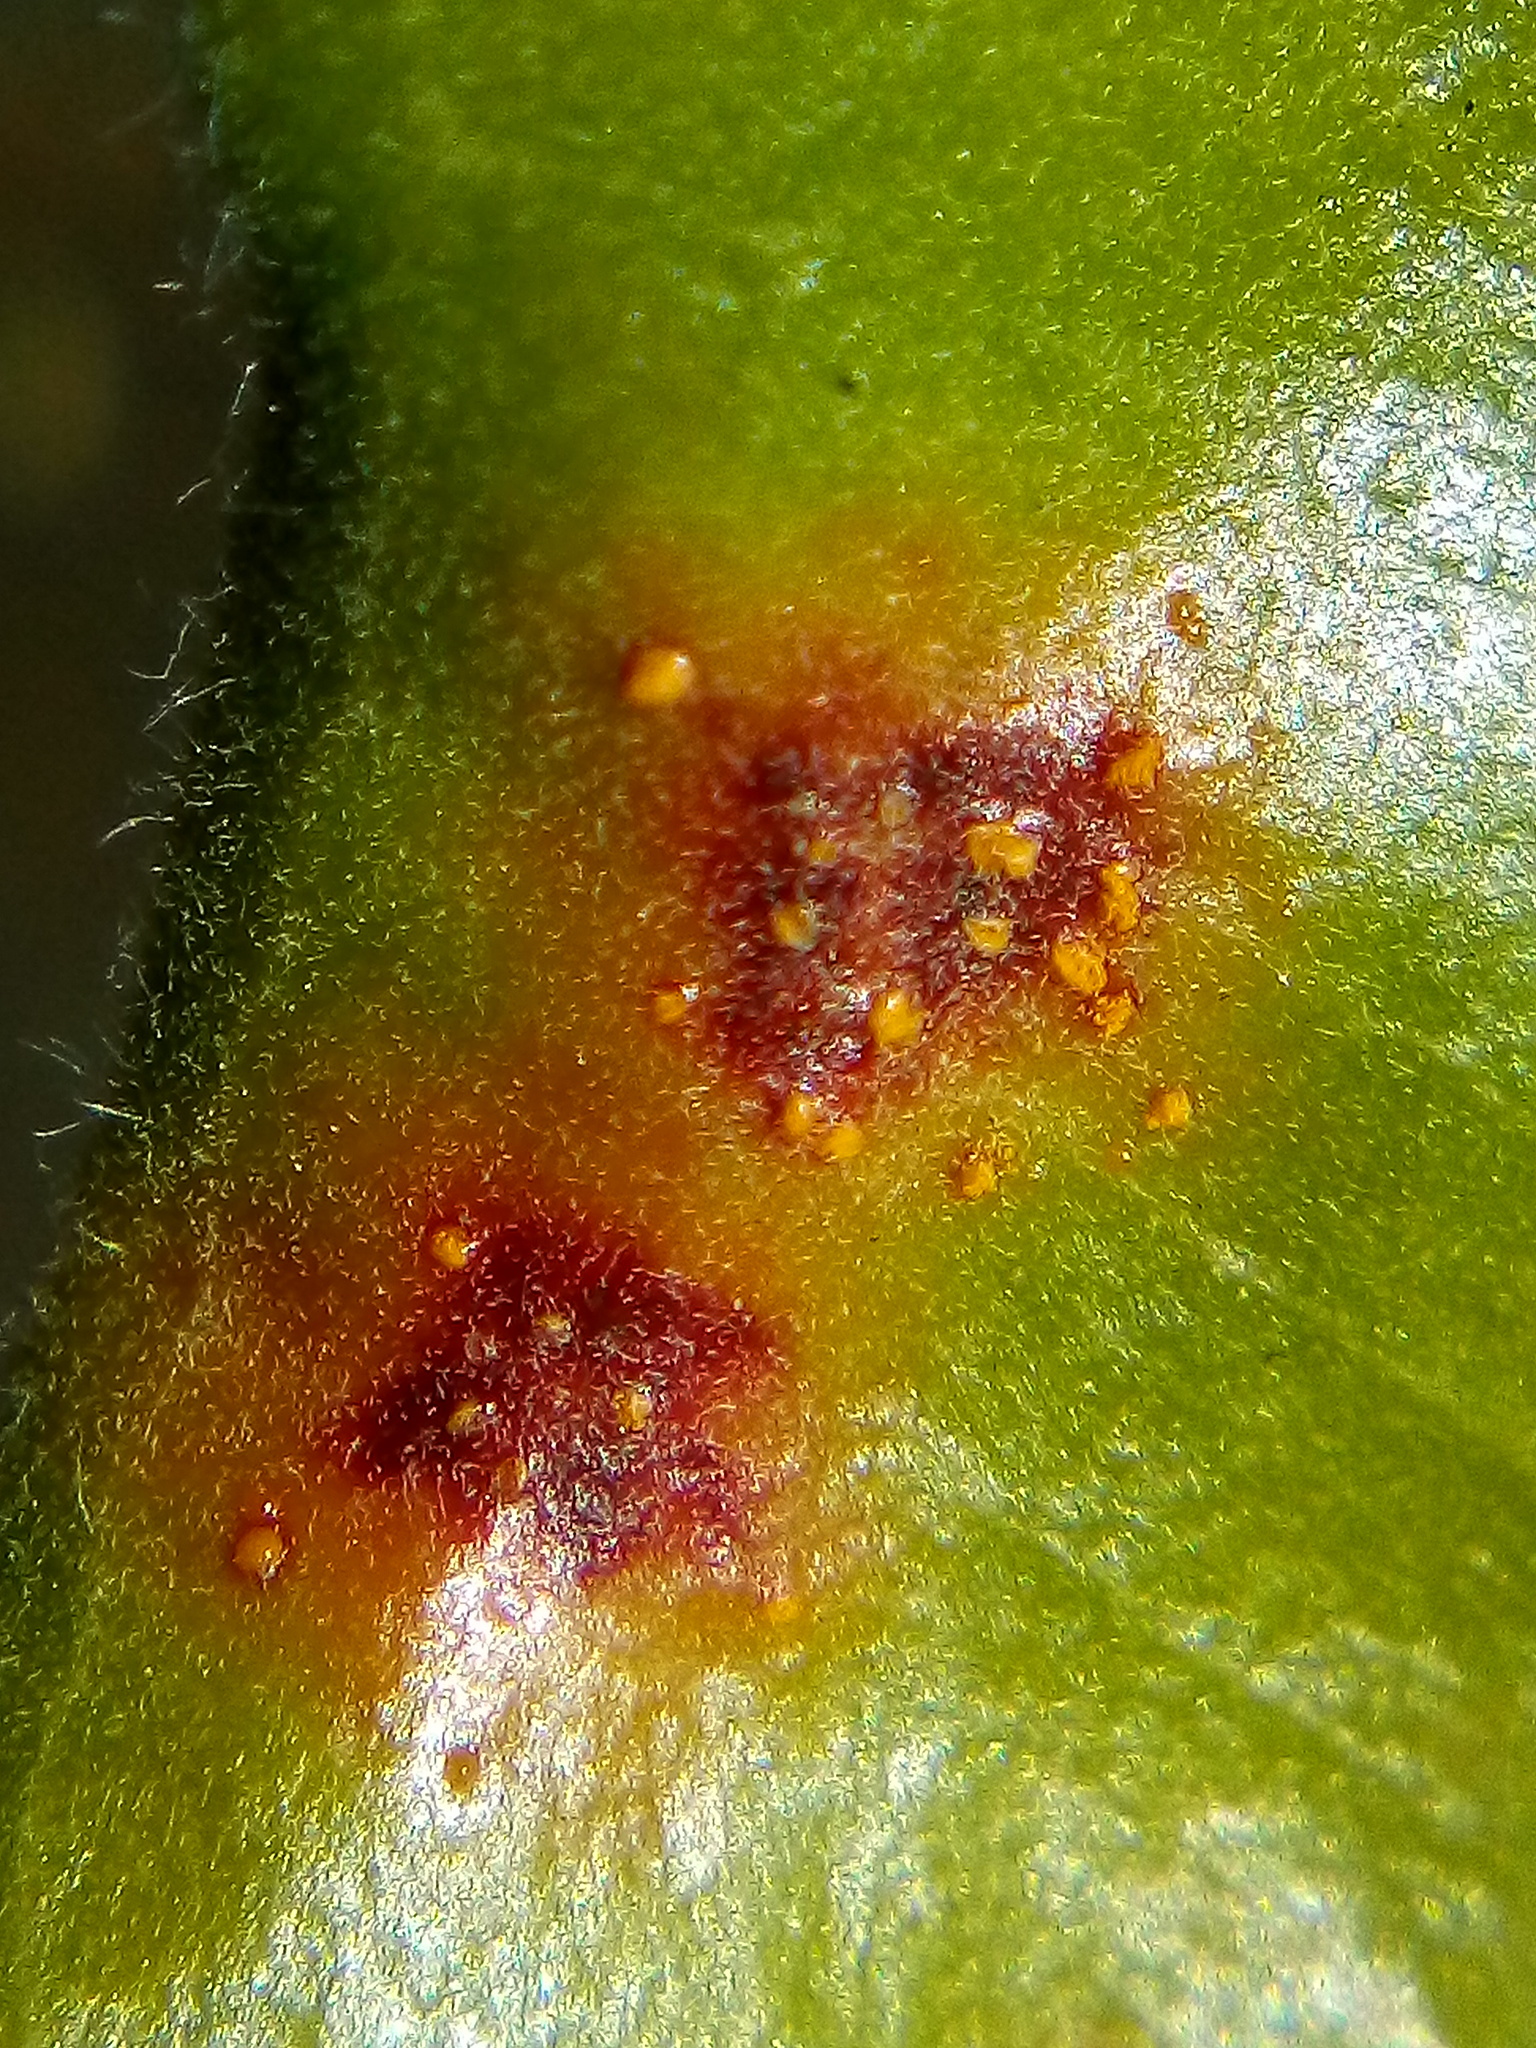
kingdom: Fungi
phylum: Basidiomycota
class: Pucciniomycetes
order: Pucciniales
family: Sphaerophragmiaceae
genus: Austropuccinia
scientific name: Austropuccinia psidii
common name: Myrtle rust
